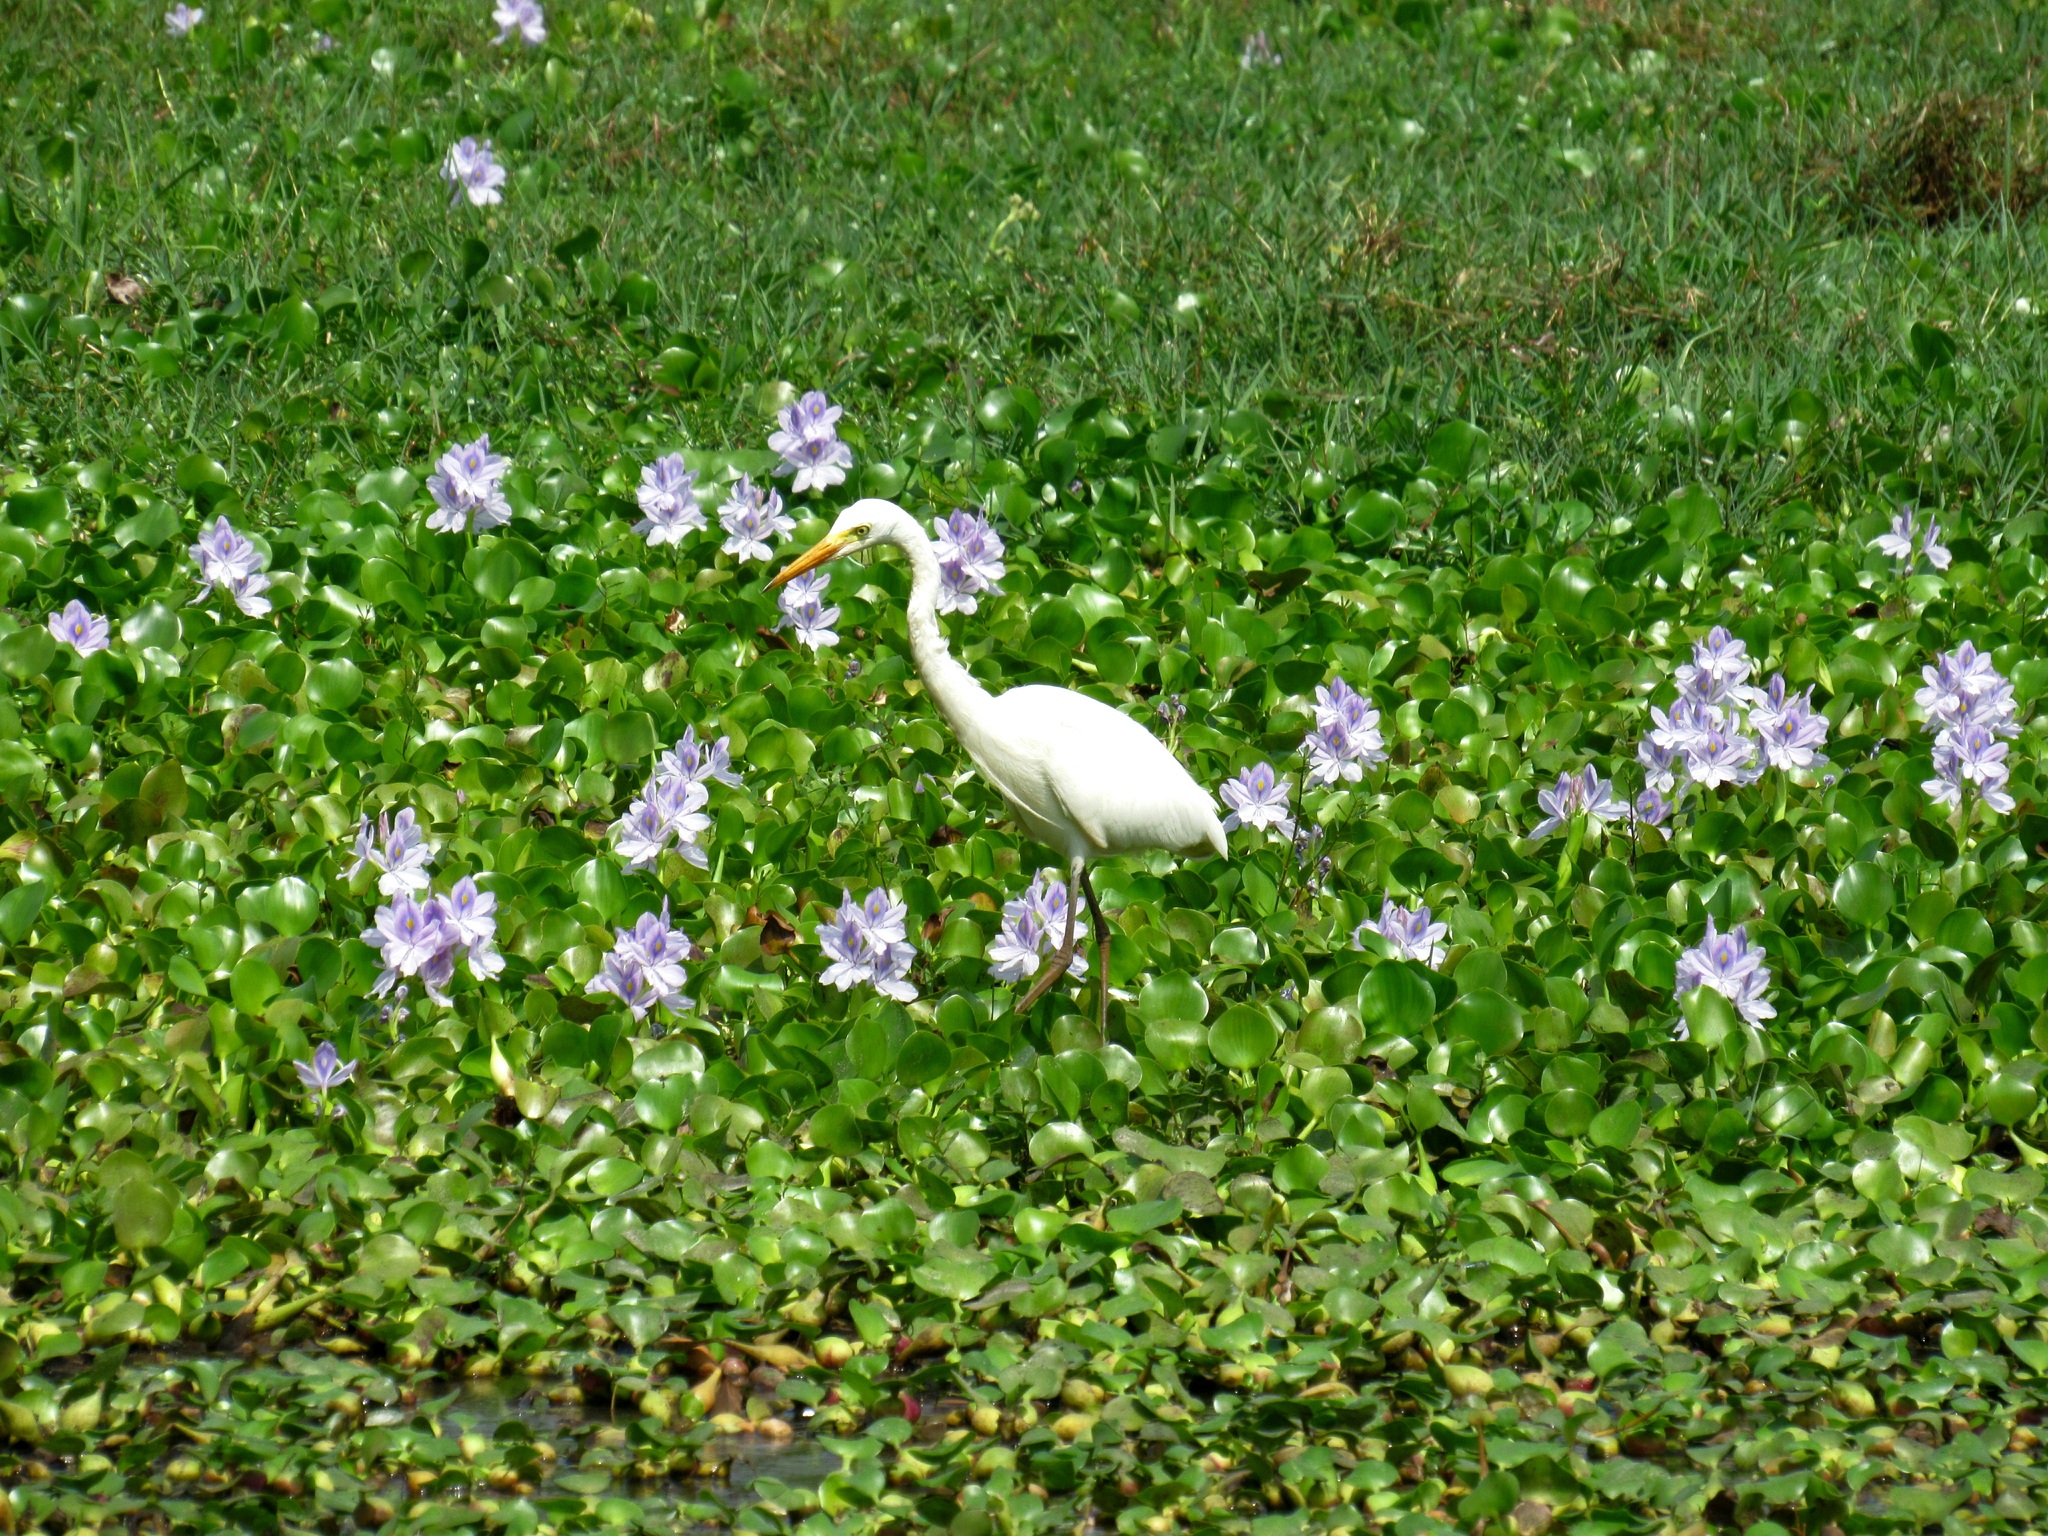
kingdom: Animalia
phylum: Chordata
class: Aves
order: Pelecaniformes
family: Ardeidae
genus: Egretta
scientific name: Egretta intermedia
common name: Intermediate egret
